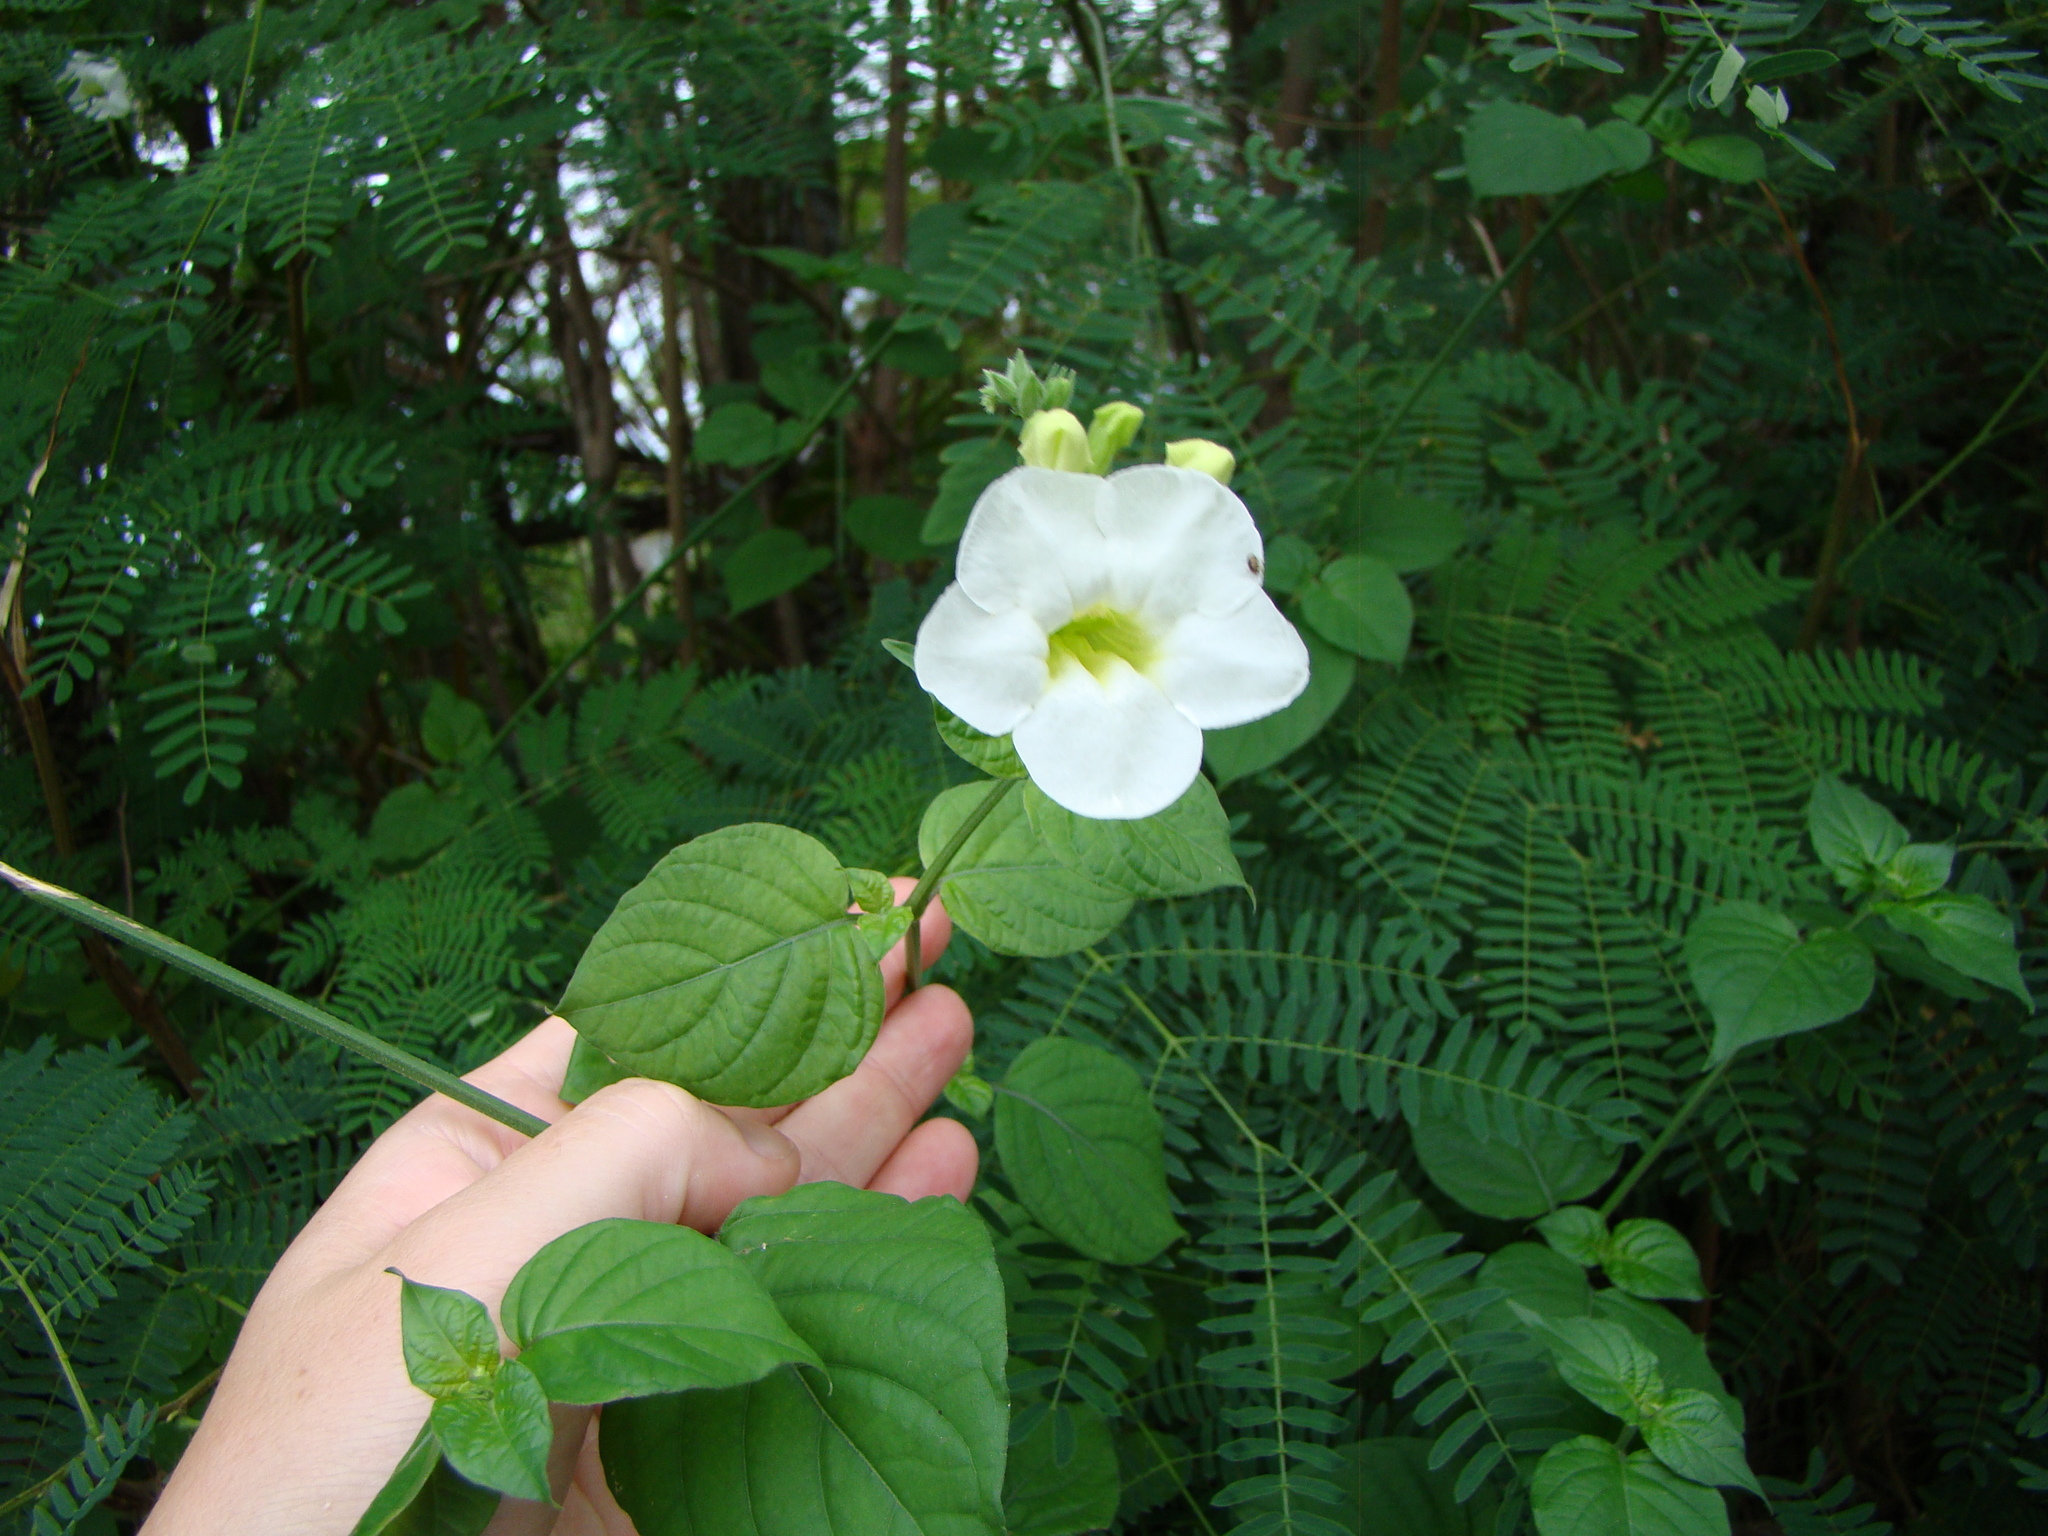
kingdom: Plantae
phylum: Tracheophyta
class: Magnoliopsida
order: Lamiales
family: Acanthaceae
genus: Asystasia
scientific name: Asystasia gangetica
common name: Chinese violet
